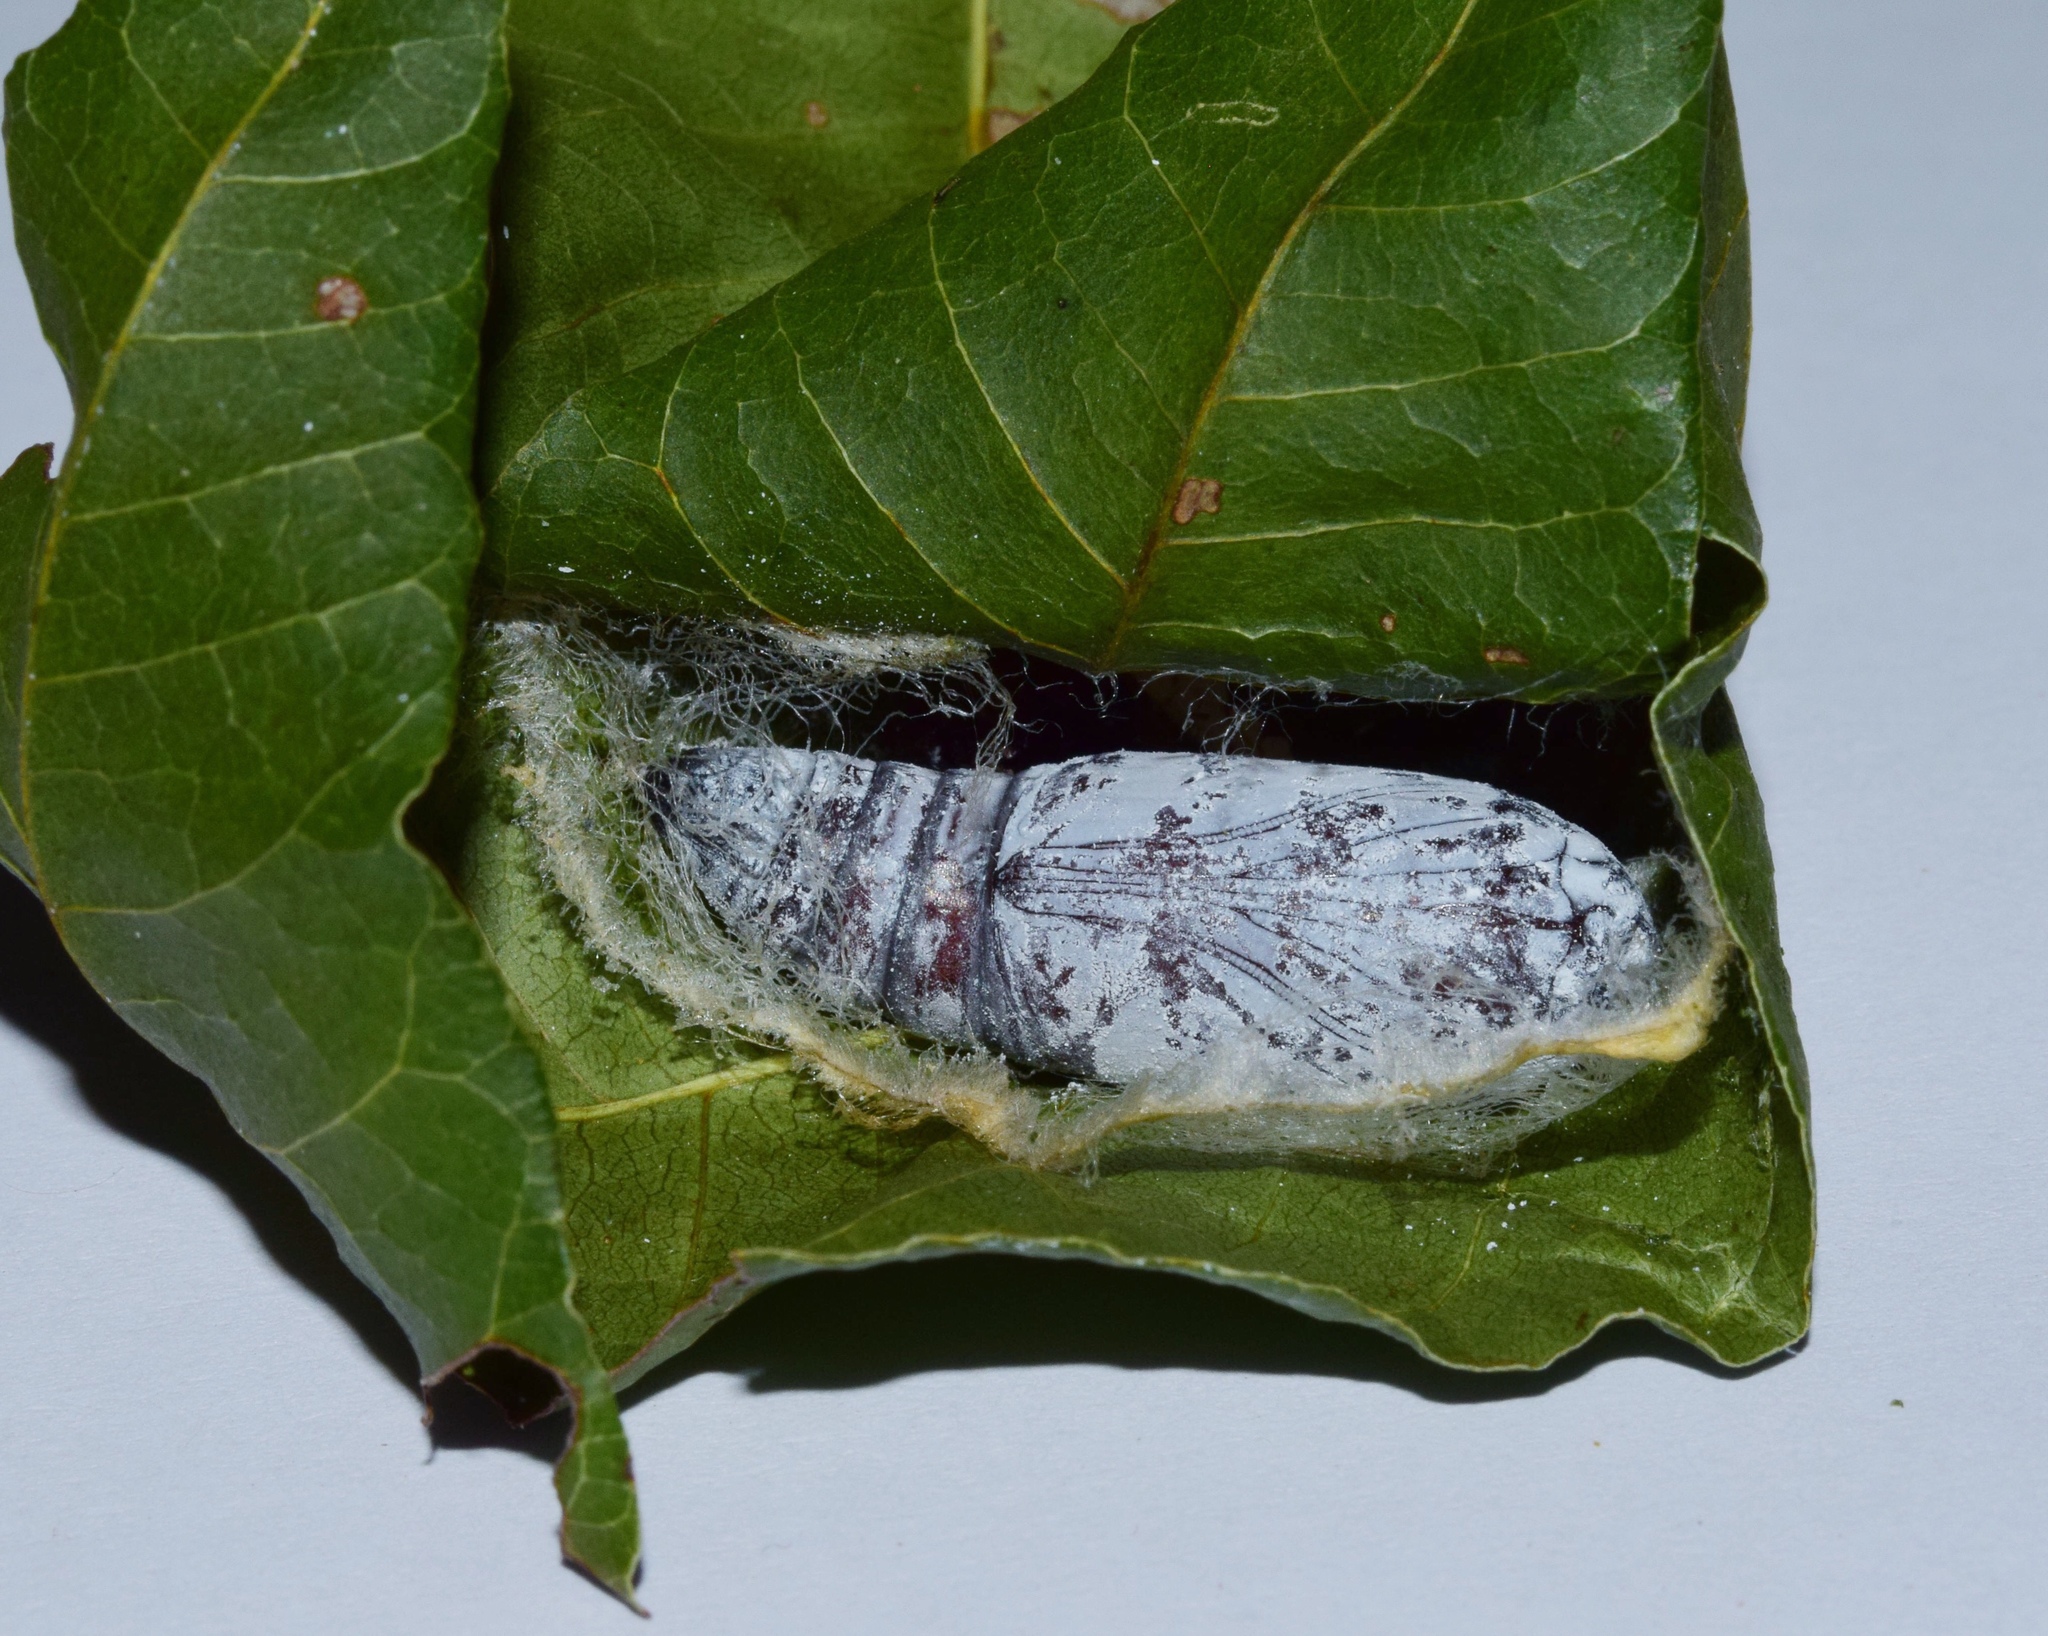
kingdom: Animalia
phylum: Arthropoda
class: Insecta
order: Lepidoptera
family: Erebidae
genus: Achaea
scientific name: Achaea echo
